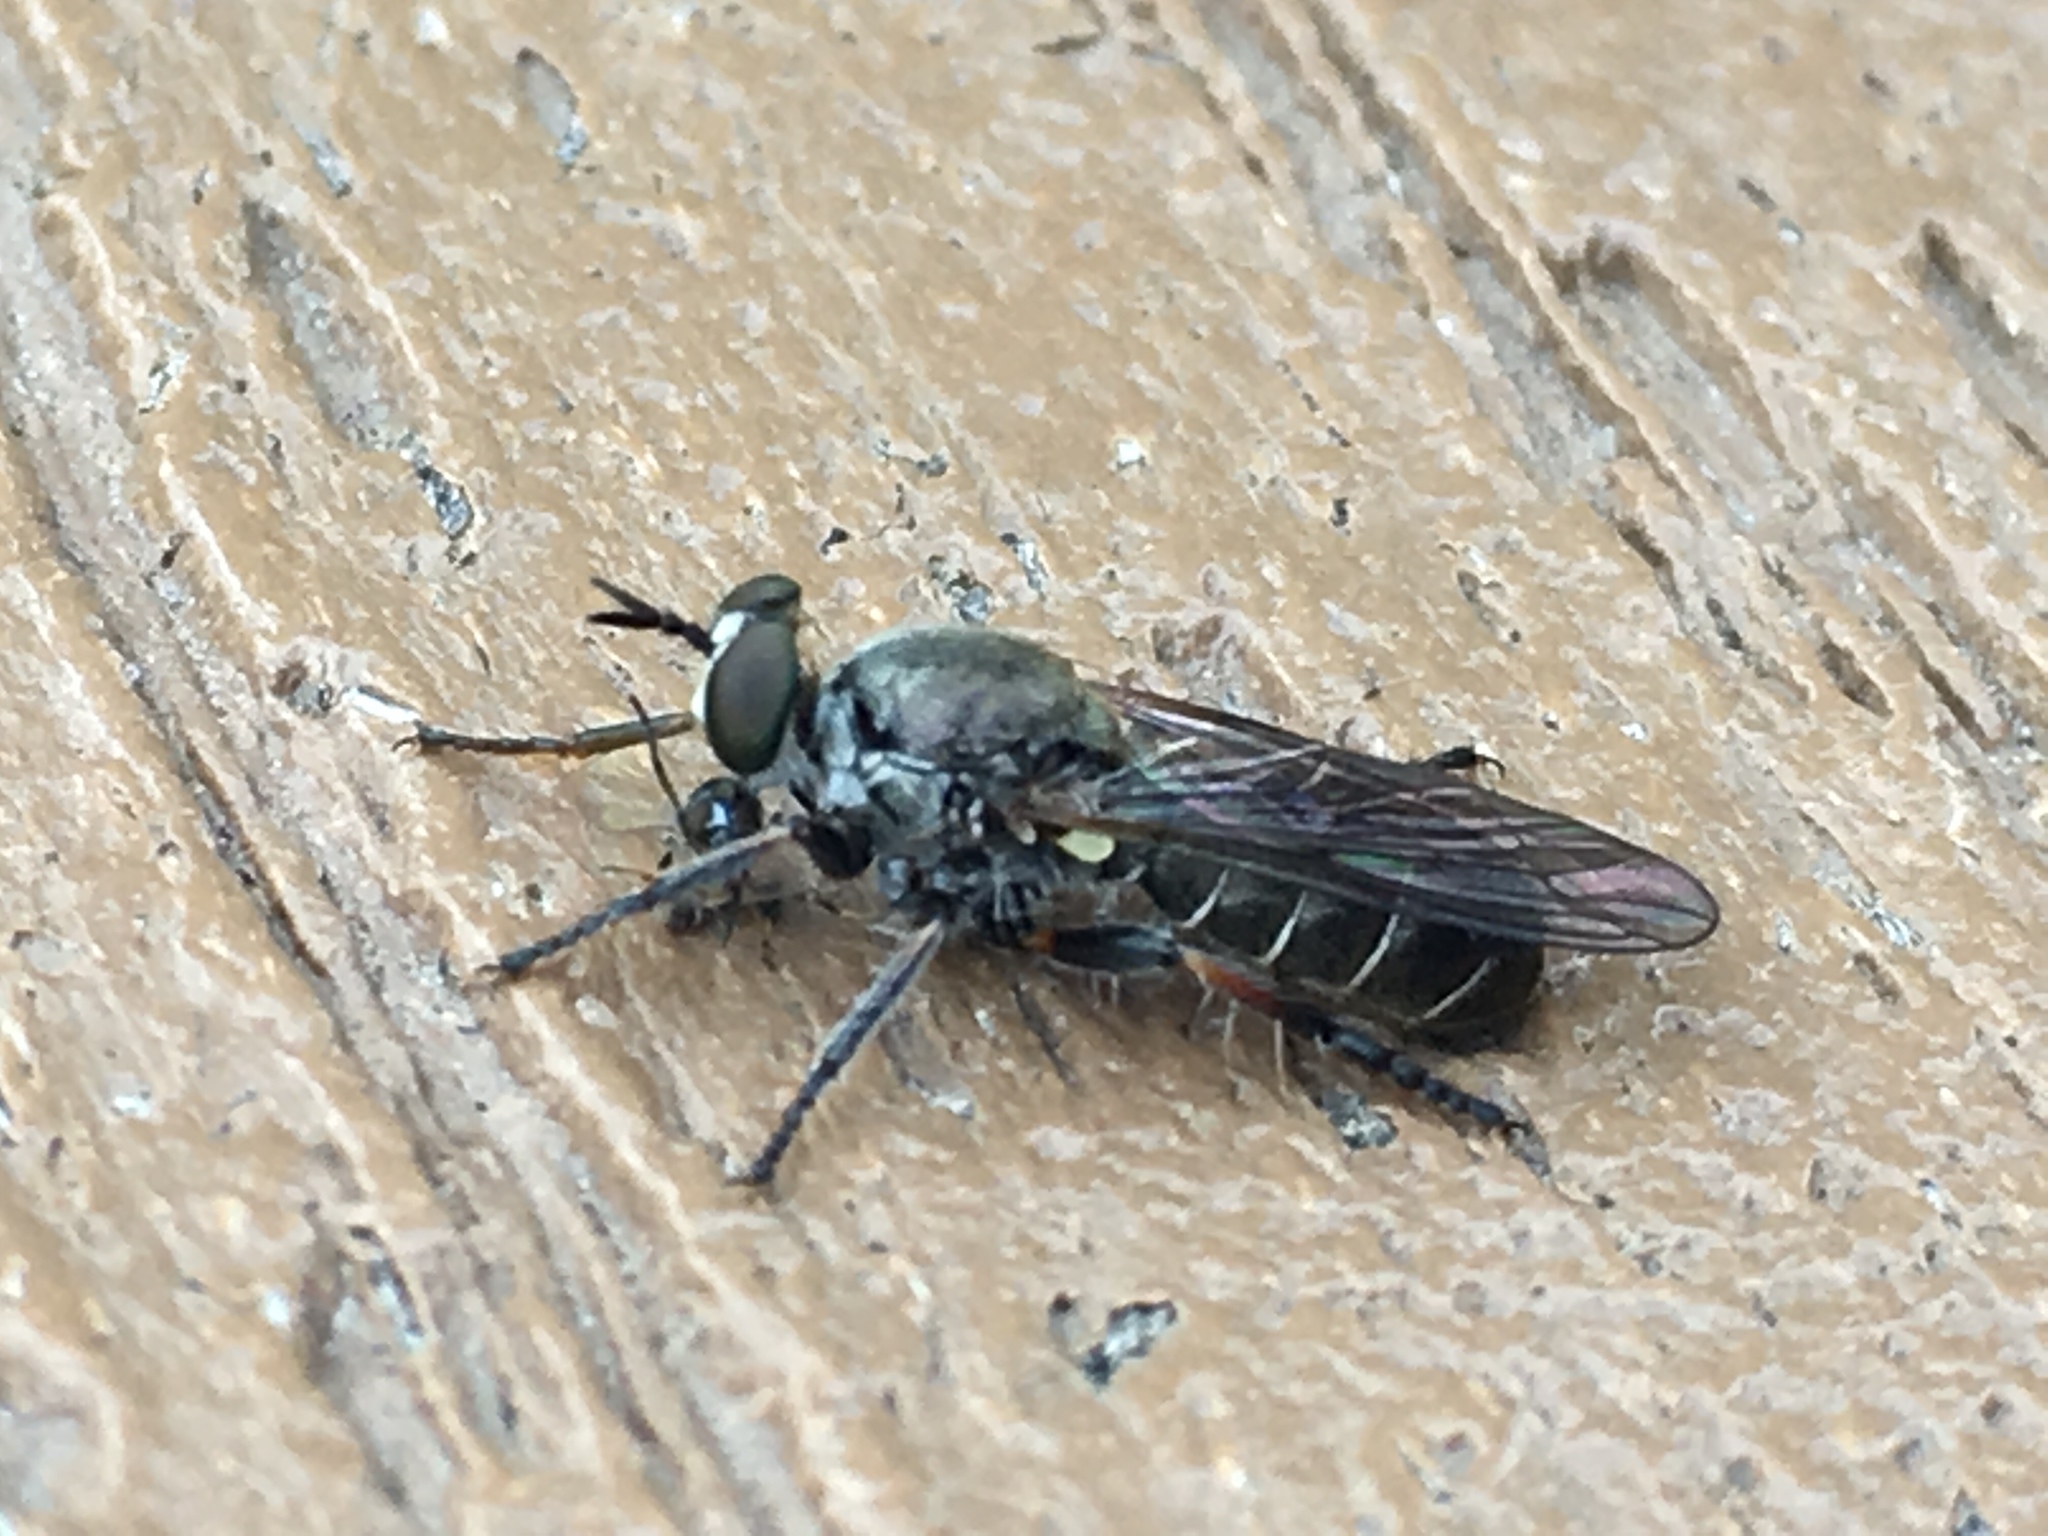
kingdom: Animalia
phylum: Arthropoda
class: Insecta
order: Diptera
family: Asilidae
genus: Atomosia
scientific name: Atomosia puella
